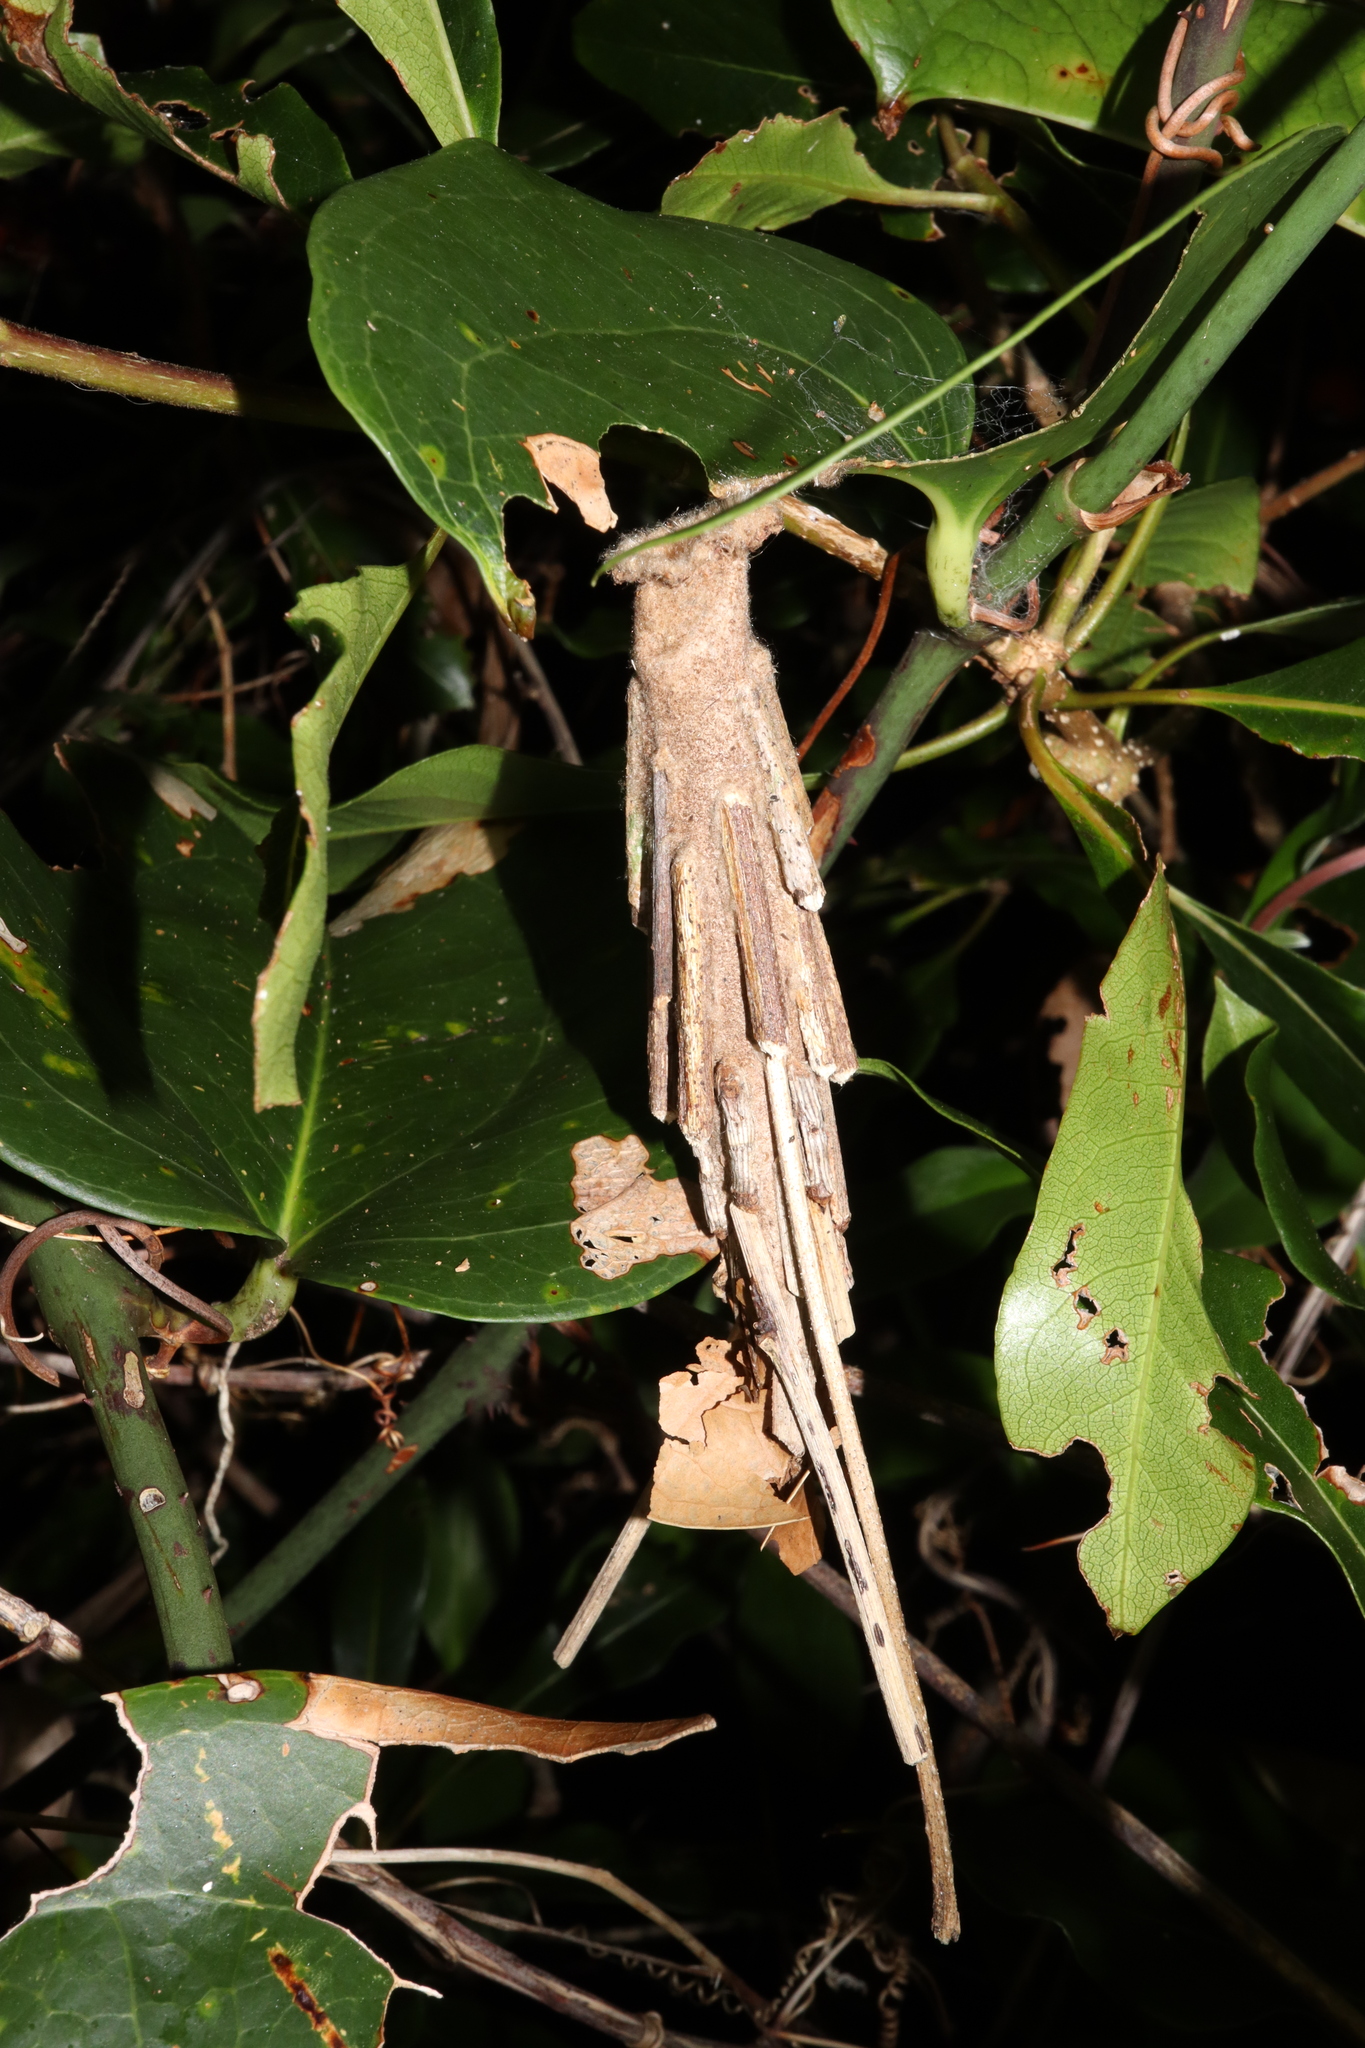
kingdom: Animalia
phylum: Arthropoda
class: Insecta
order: Lepidoptera
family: Psychidae
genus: Metura
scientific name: Metura elongatus
